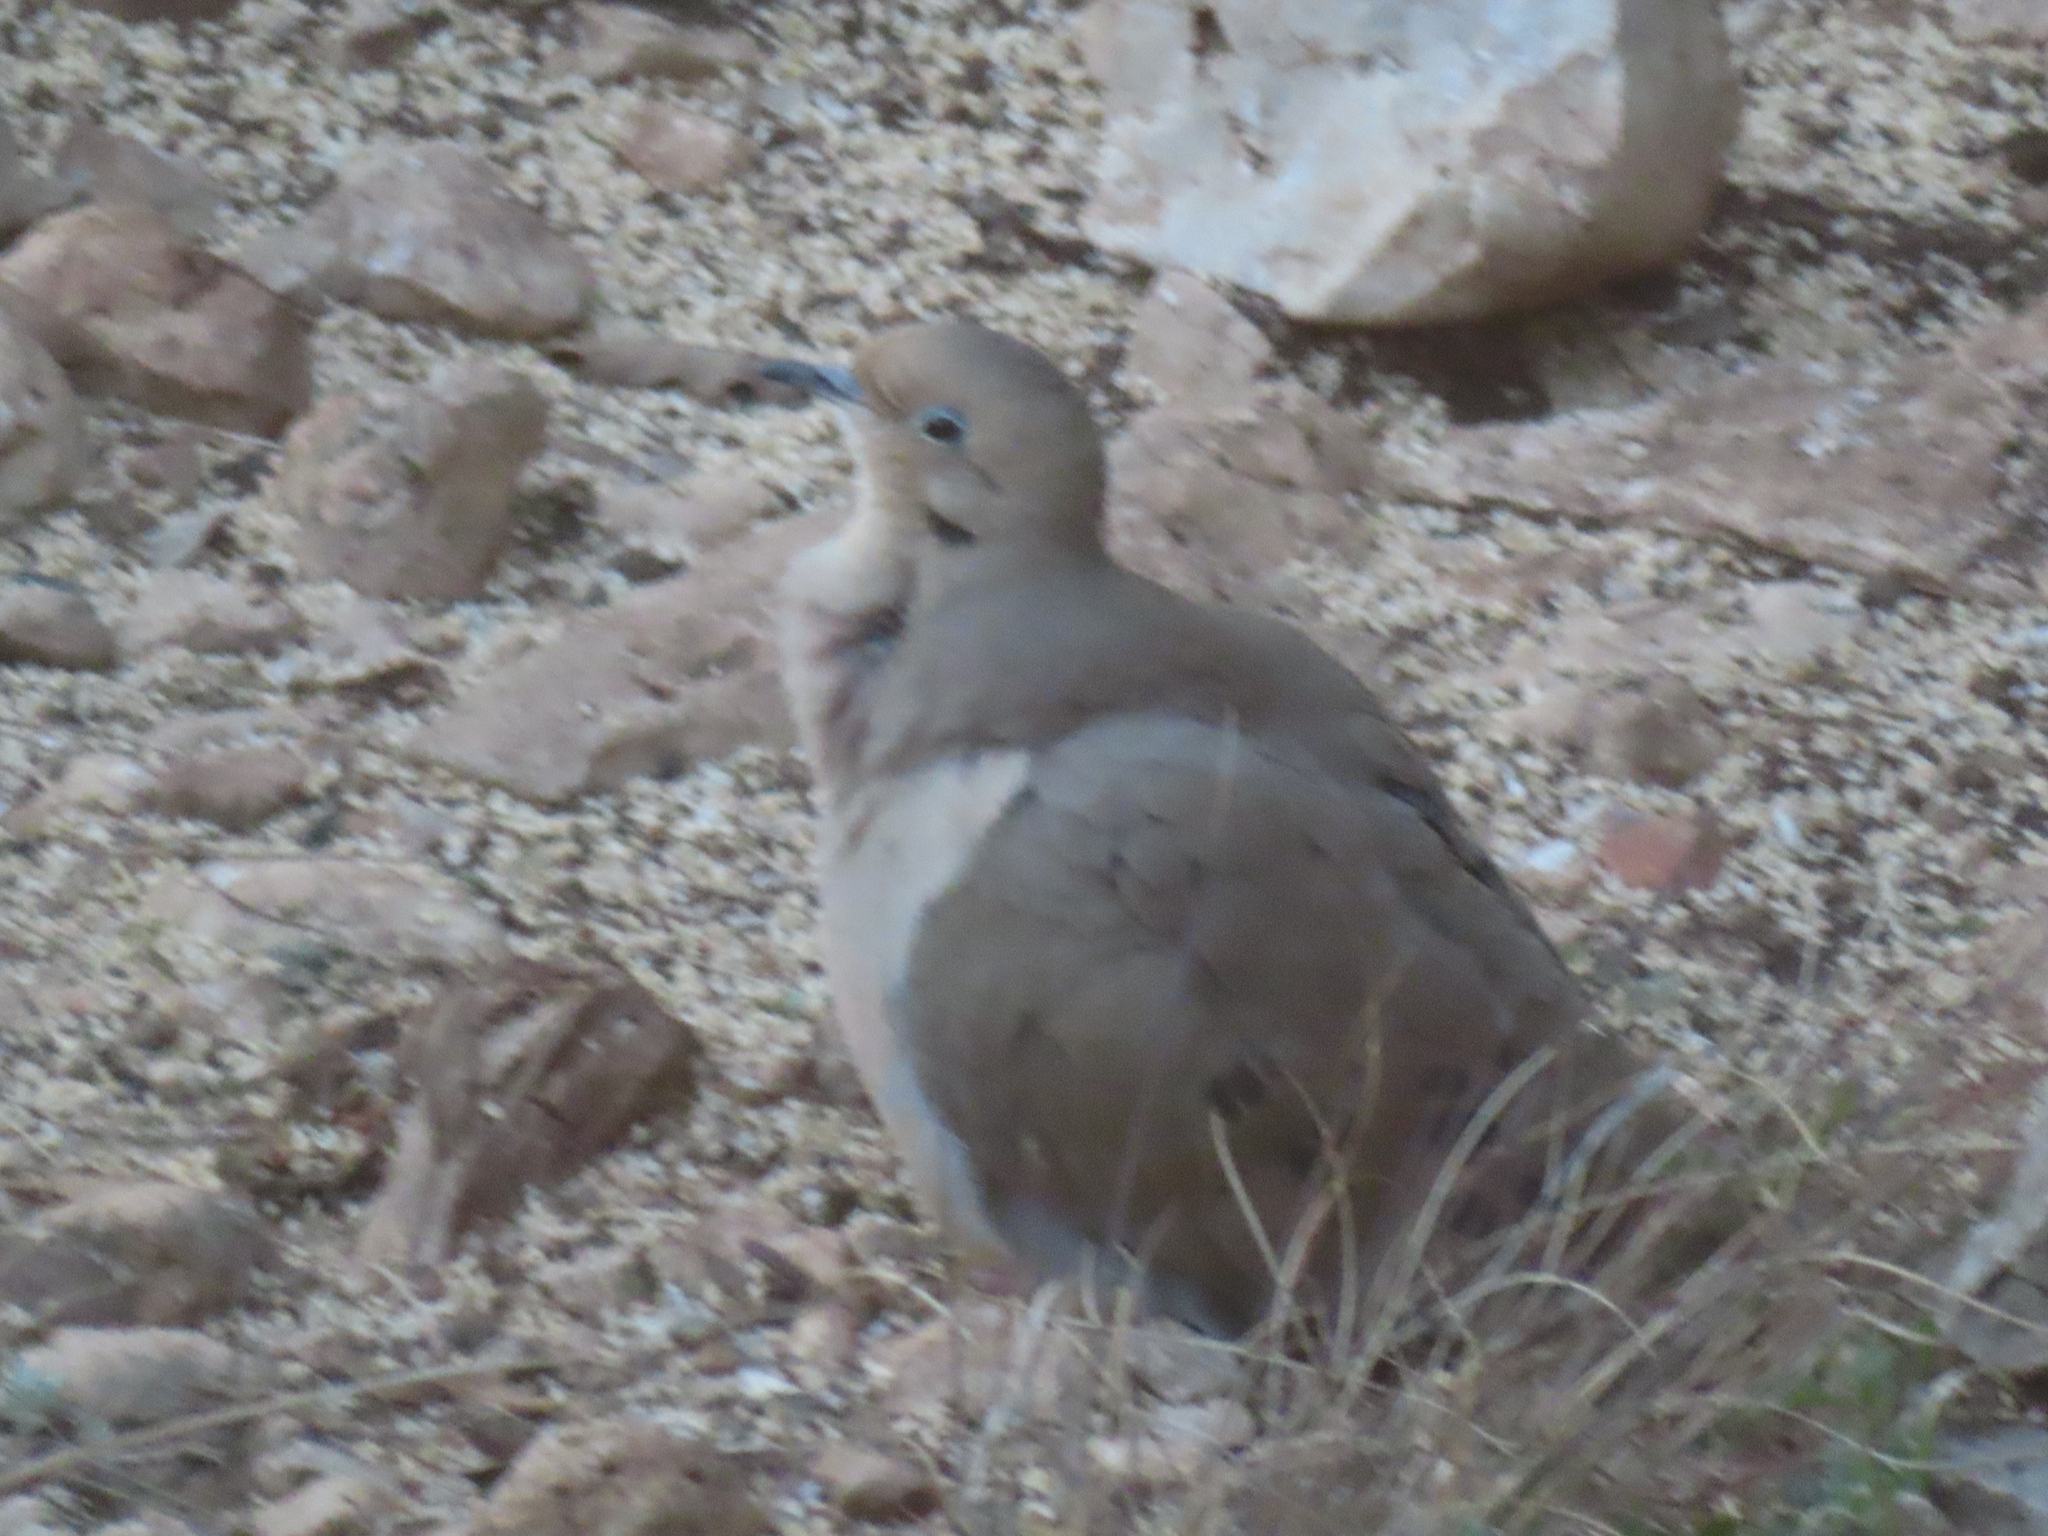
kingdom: Animalia
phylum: Chordata
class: Aves
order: Columbiformes
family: Columbidae
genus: Zenaida
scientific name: Zenaida macroura
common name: Mourning dove
